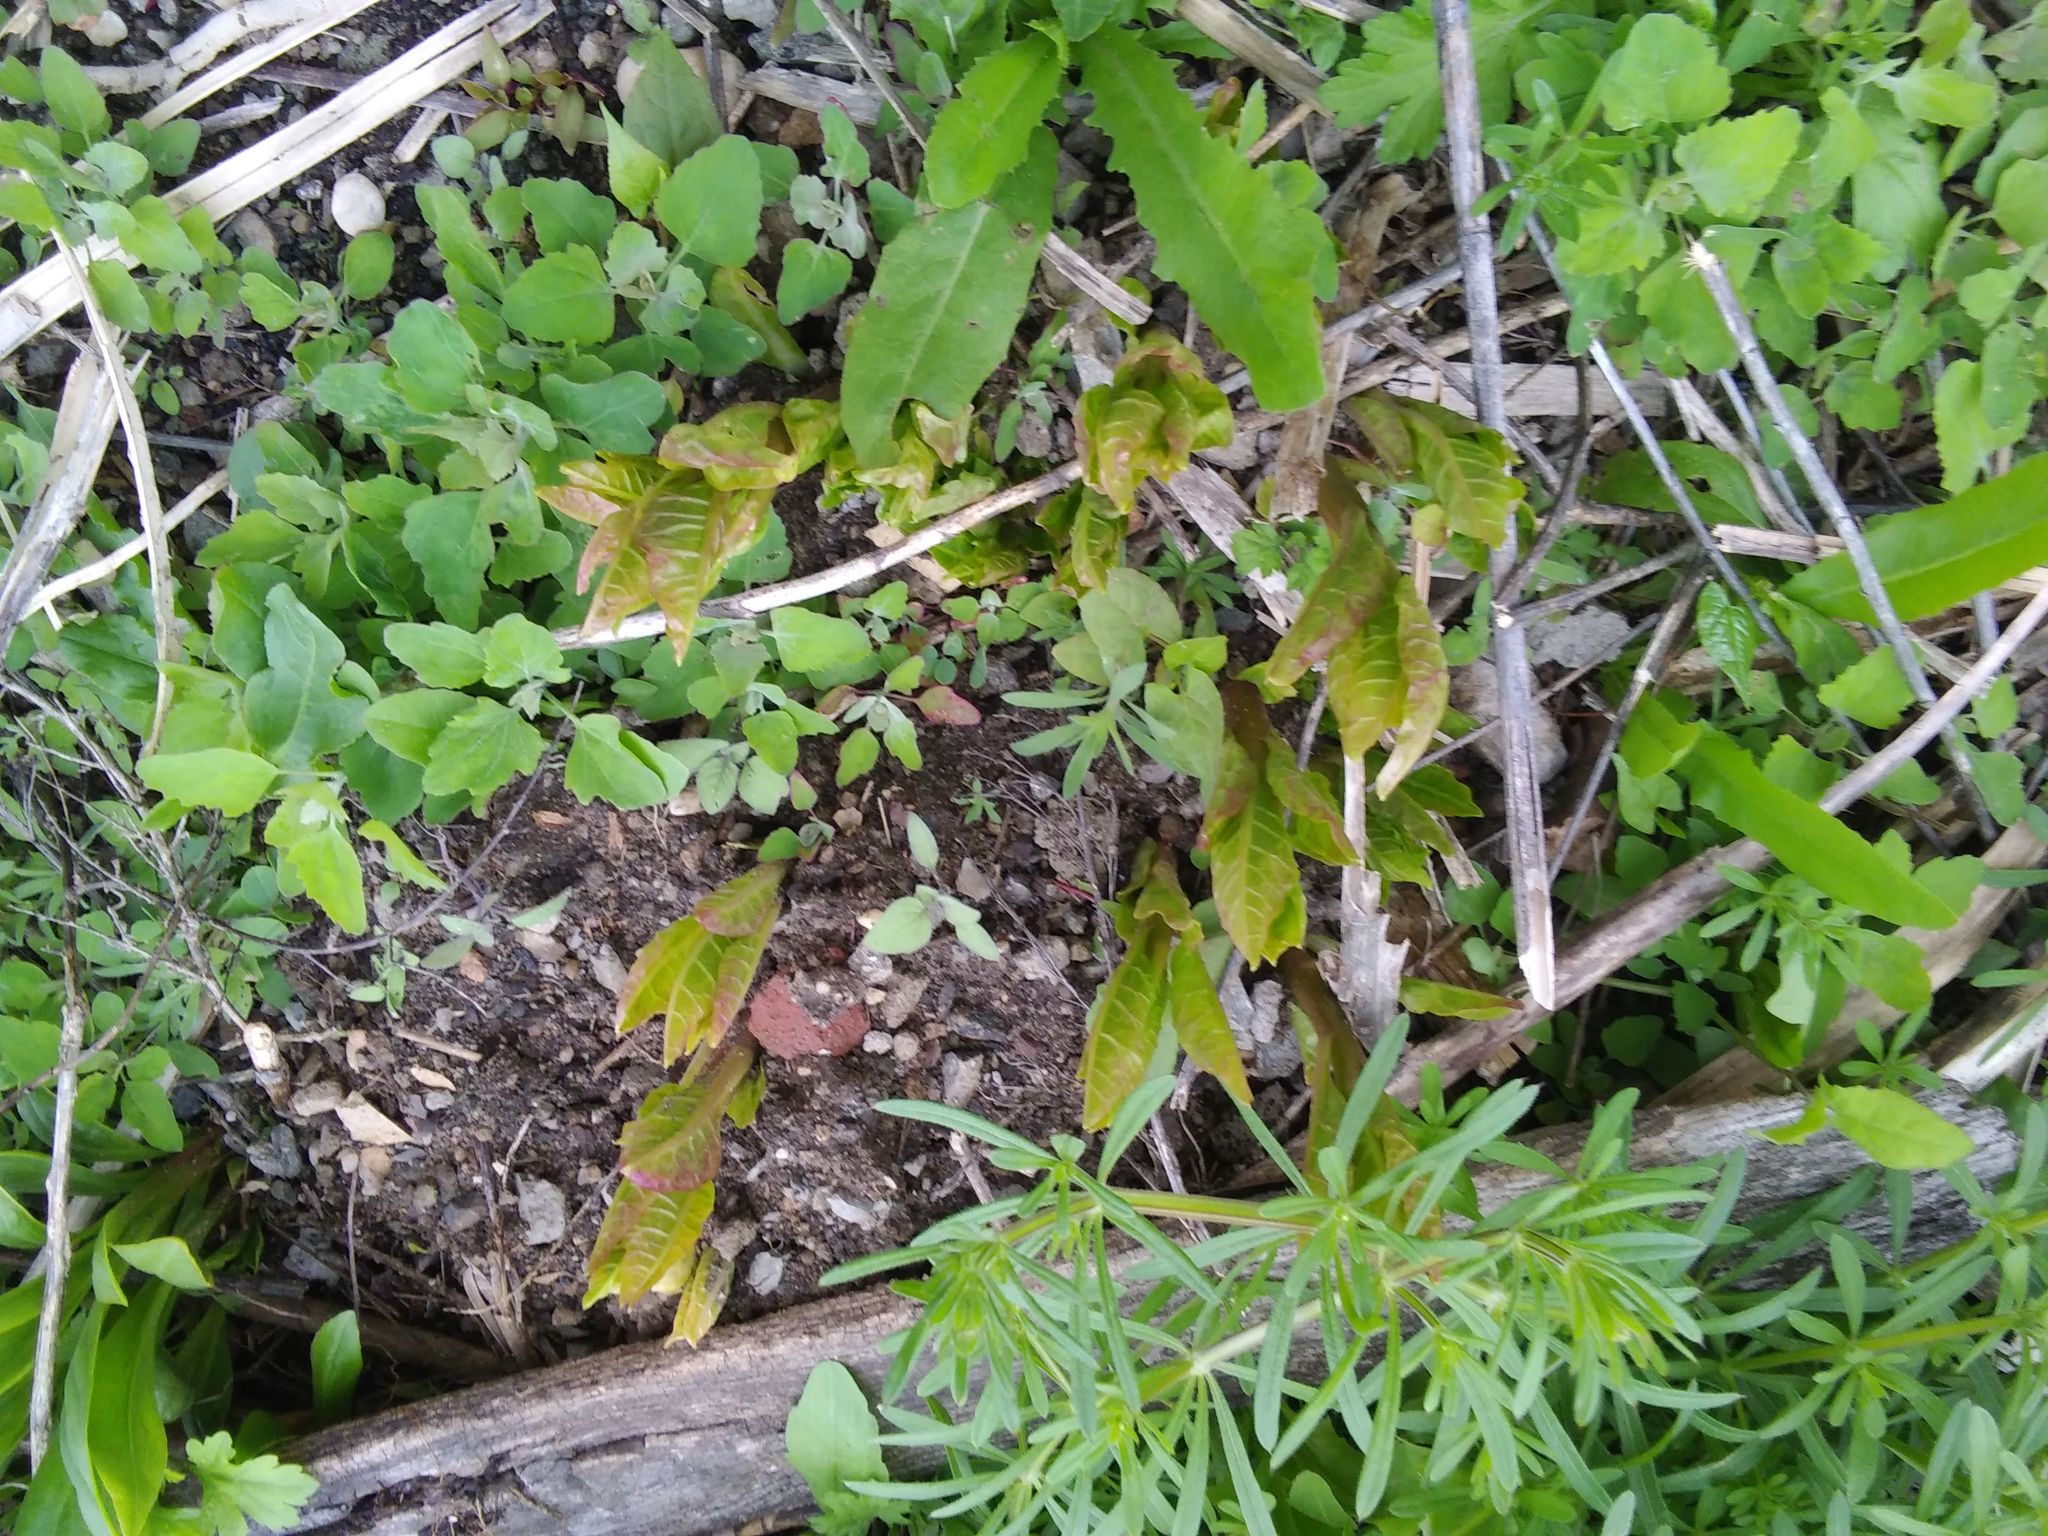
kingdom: Plantae
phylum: Tracheophyta
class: Magnoliopsida
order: Caryophyllales
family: Phytolaccaceae
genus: Phytolacca
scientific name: Phytolacca americana
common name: American pokeweed
